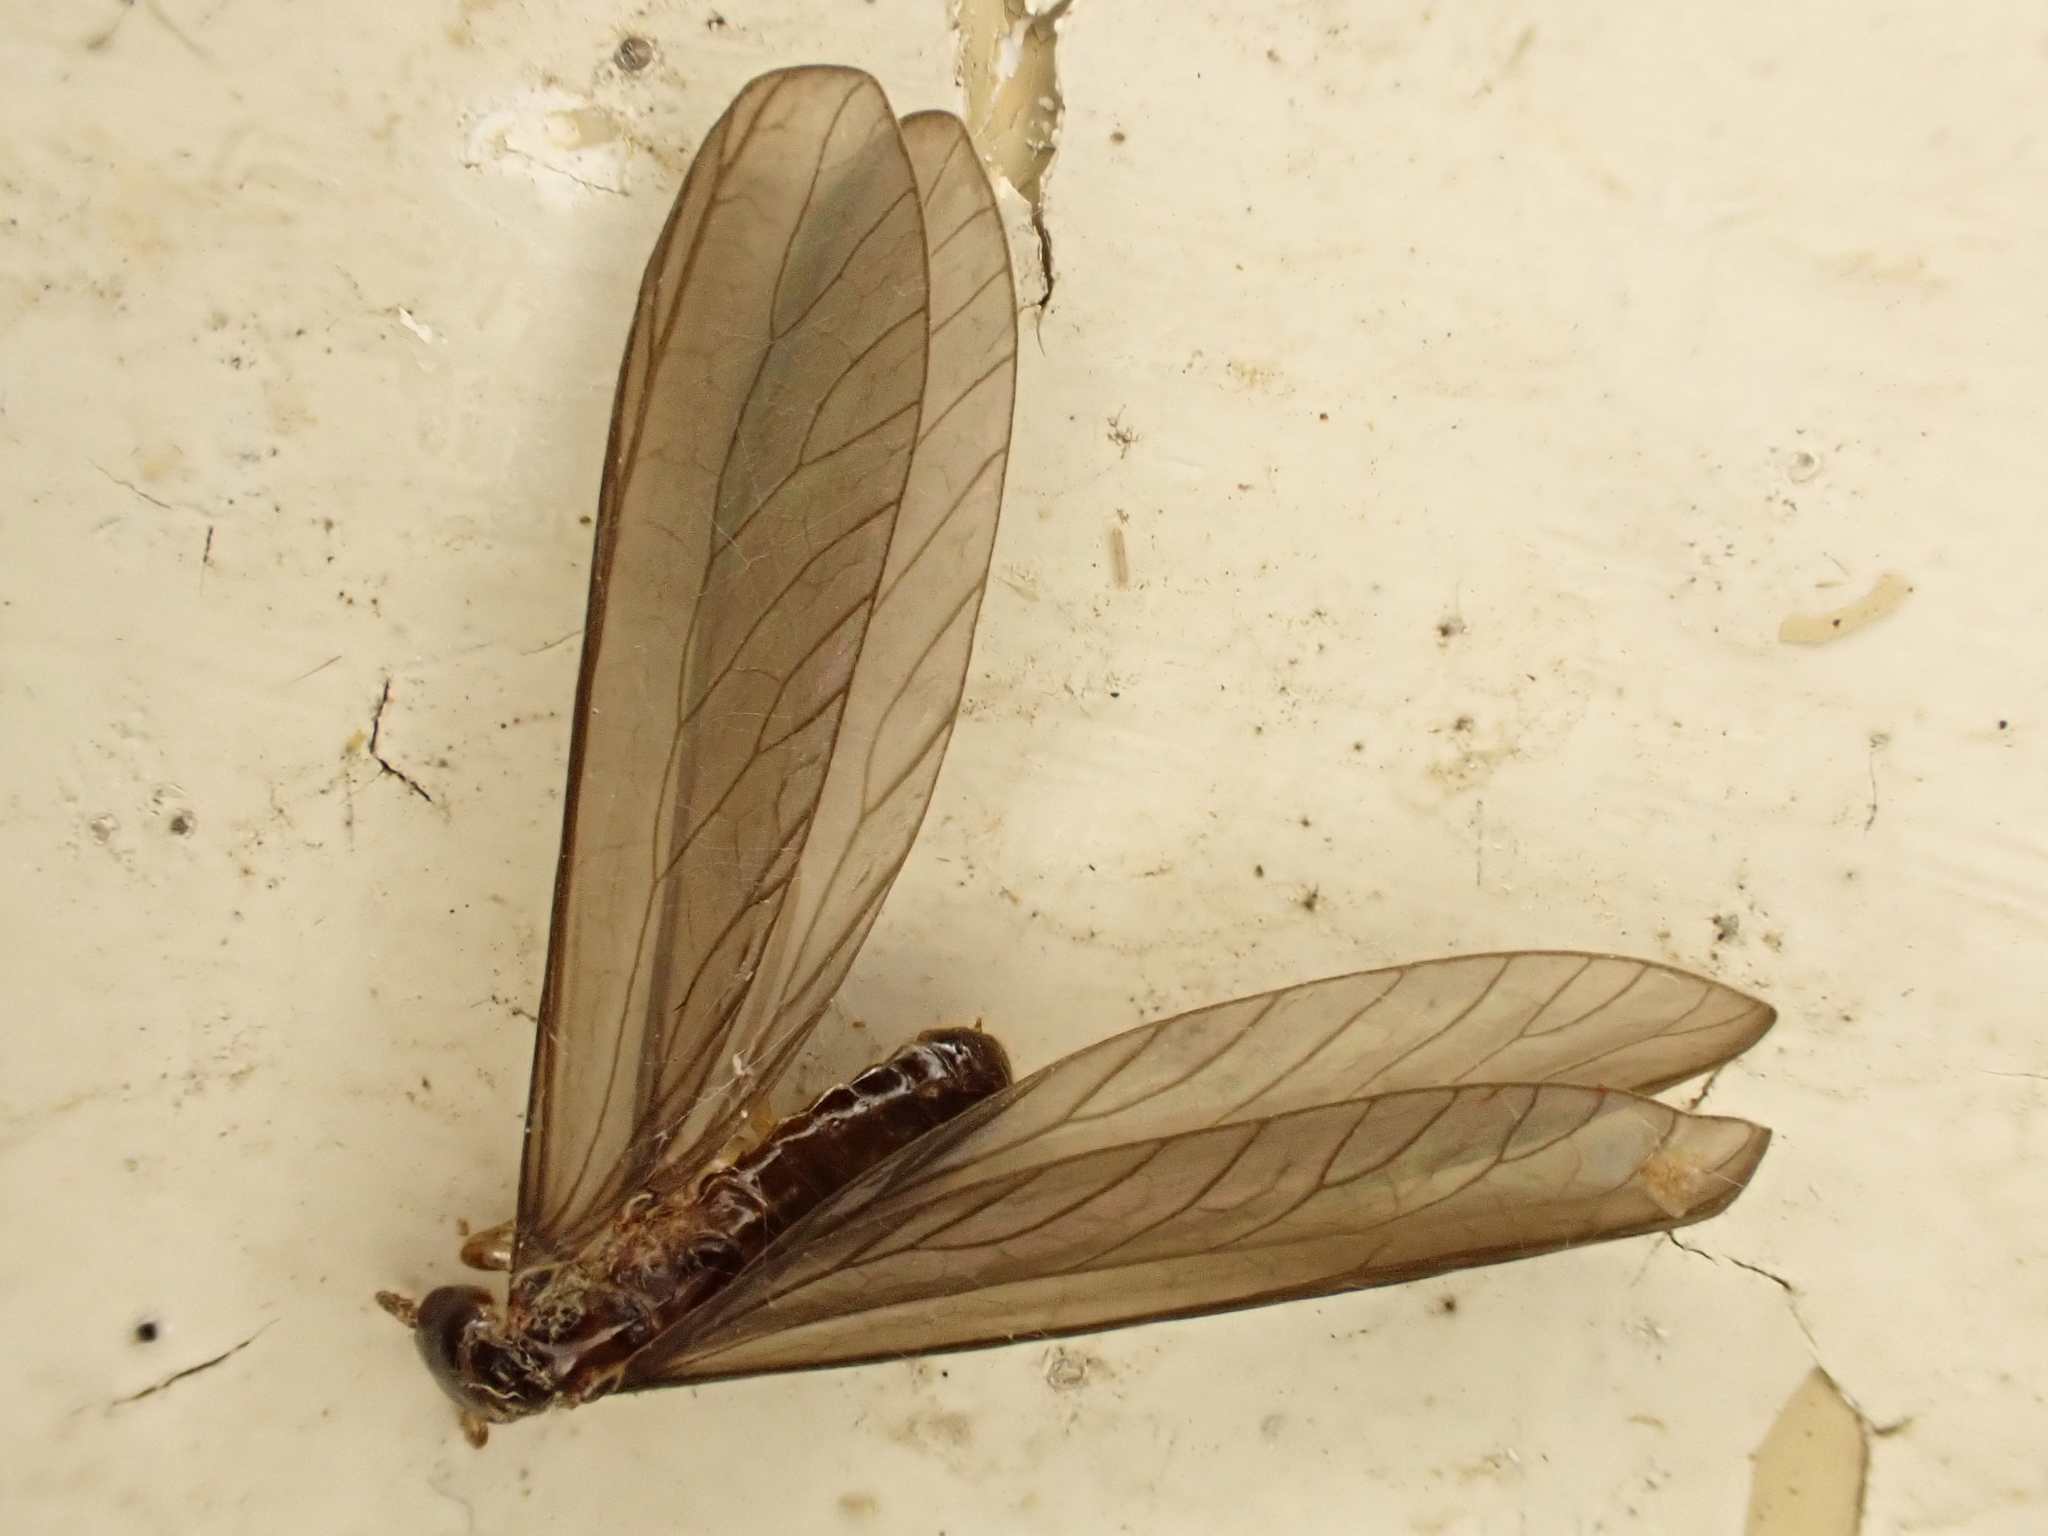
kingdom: Animalia
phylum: Arthropoda
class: Insecta
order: Blattodea
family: Stolotermitidae
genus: Stolotermes
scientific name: Stolotermes ruficeps
